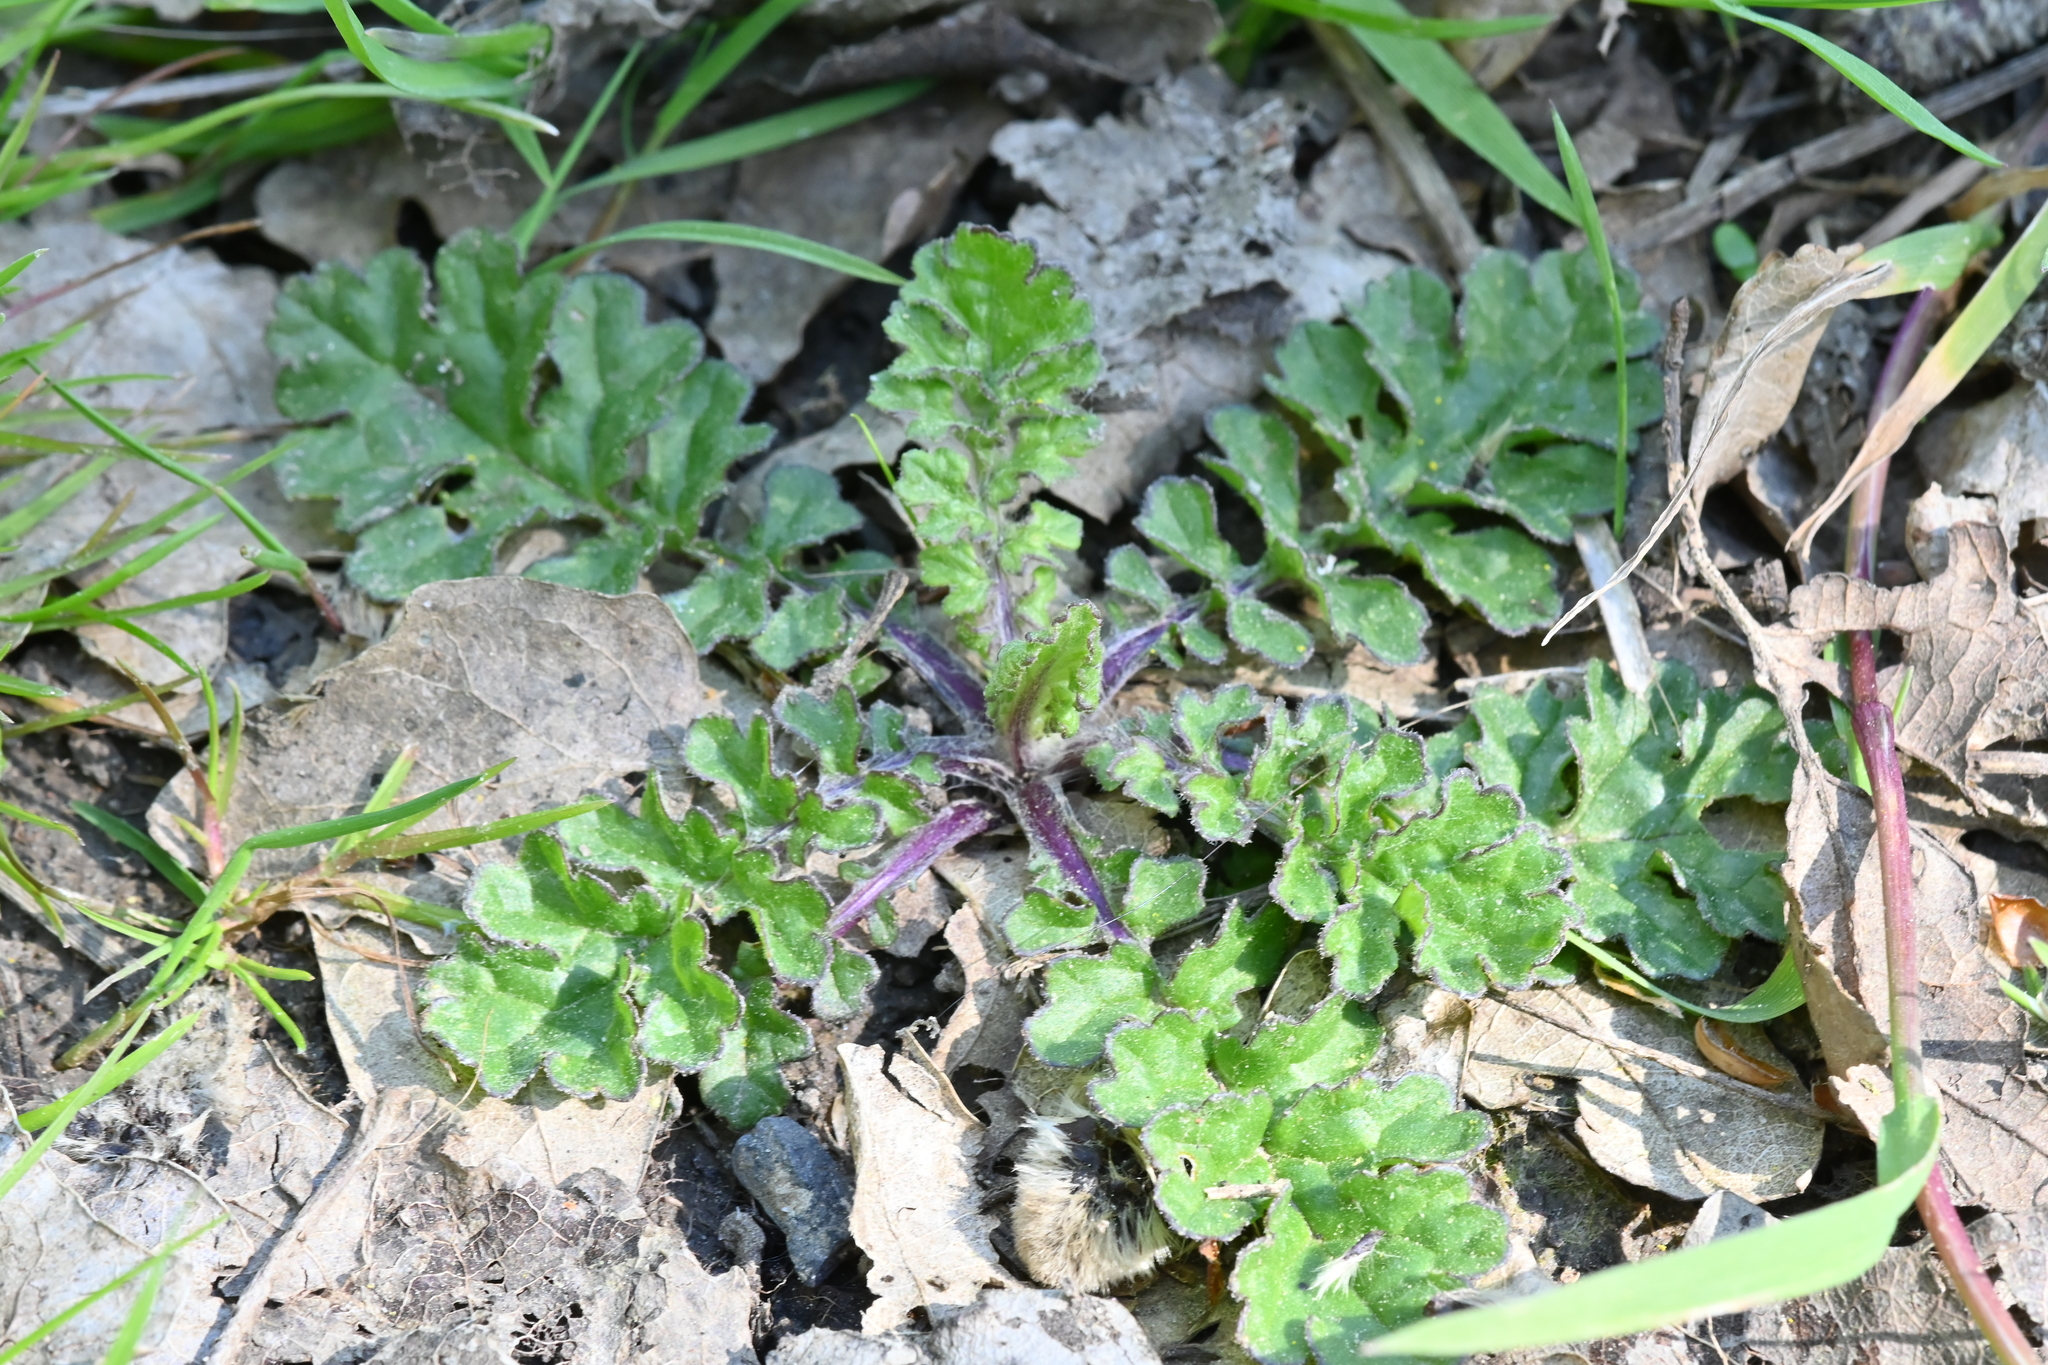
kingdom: Plantae
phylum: Tracheophyta
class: Magnoliopsida
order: Asterales
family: Asteraceae
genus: Jacobaea
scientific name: Jacobaea vulgaris
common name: Stinking willie
